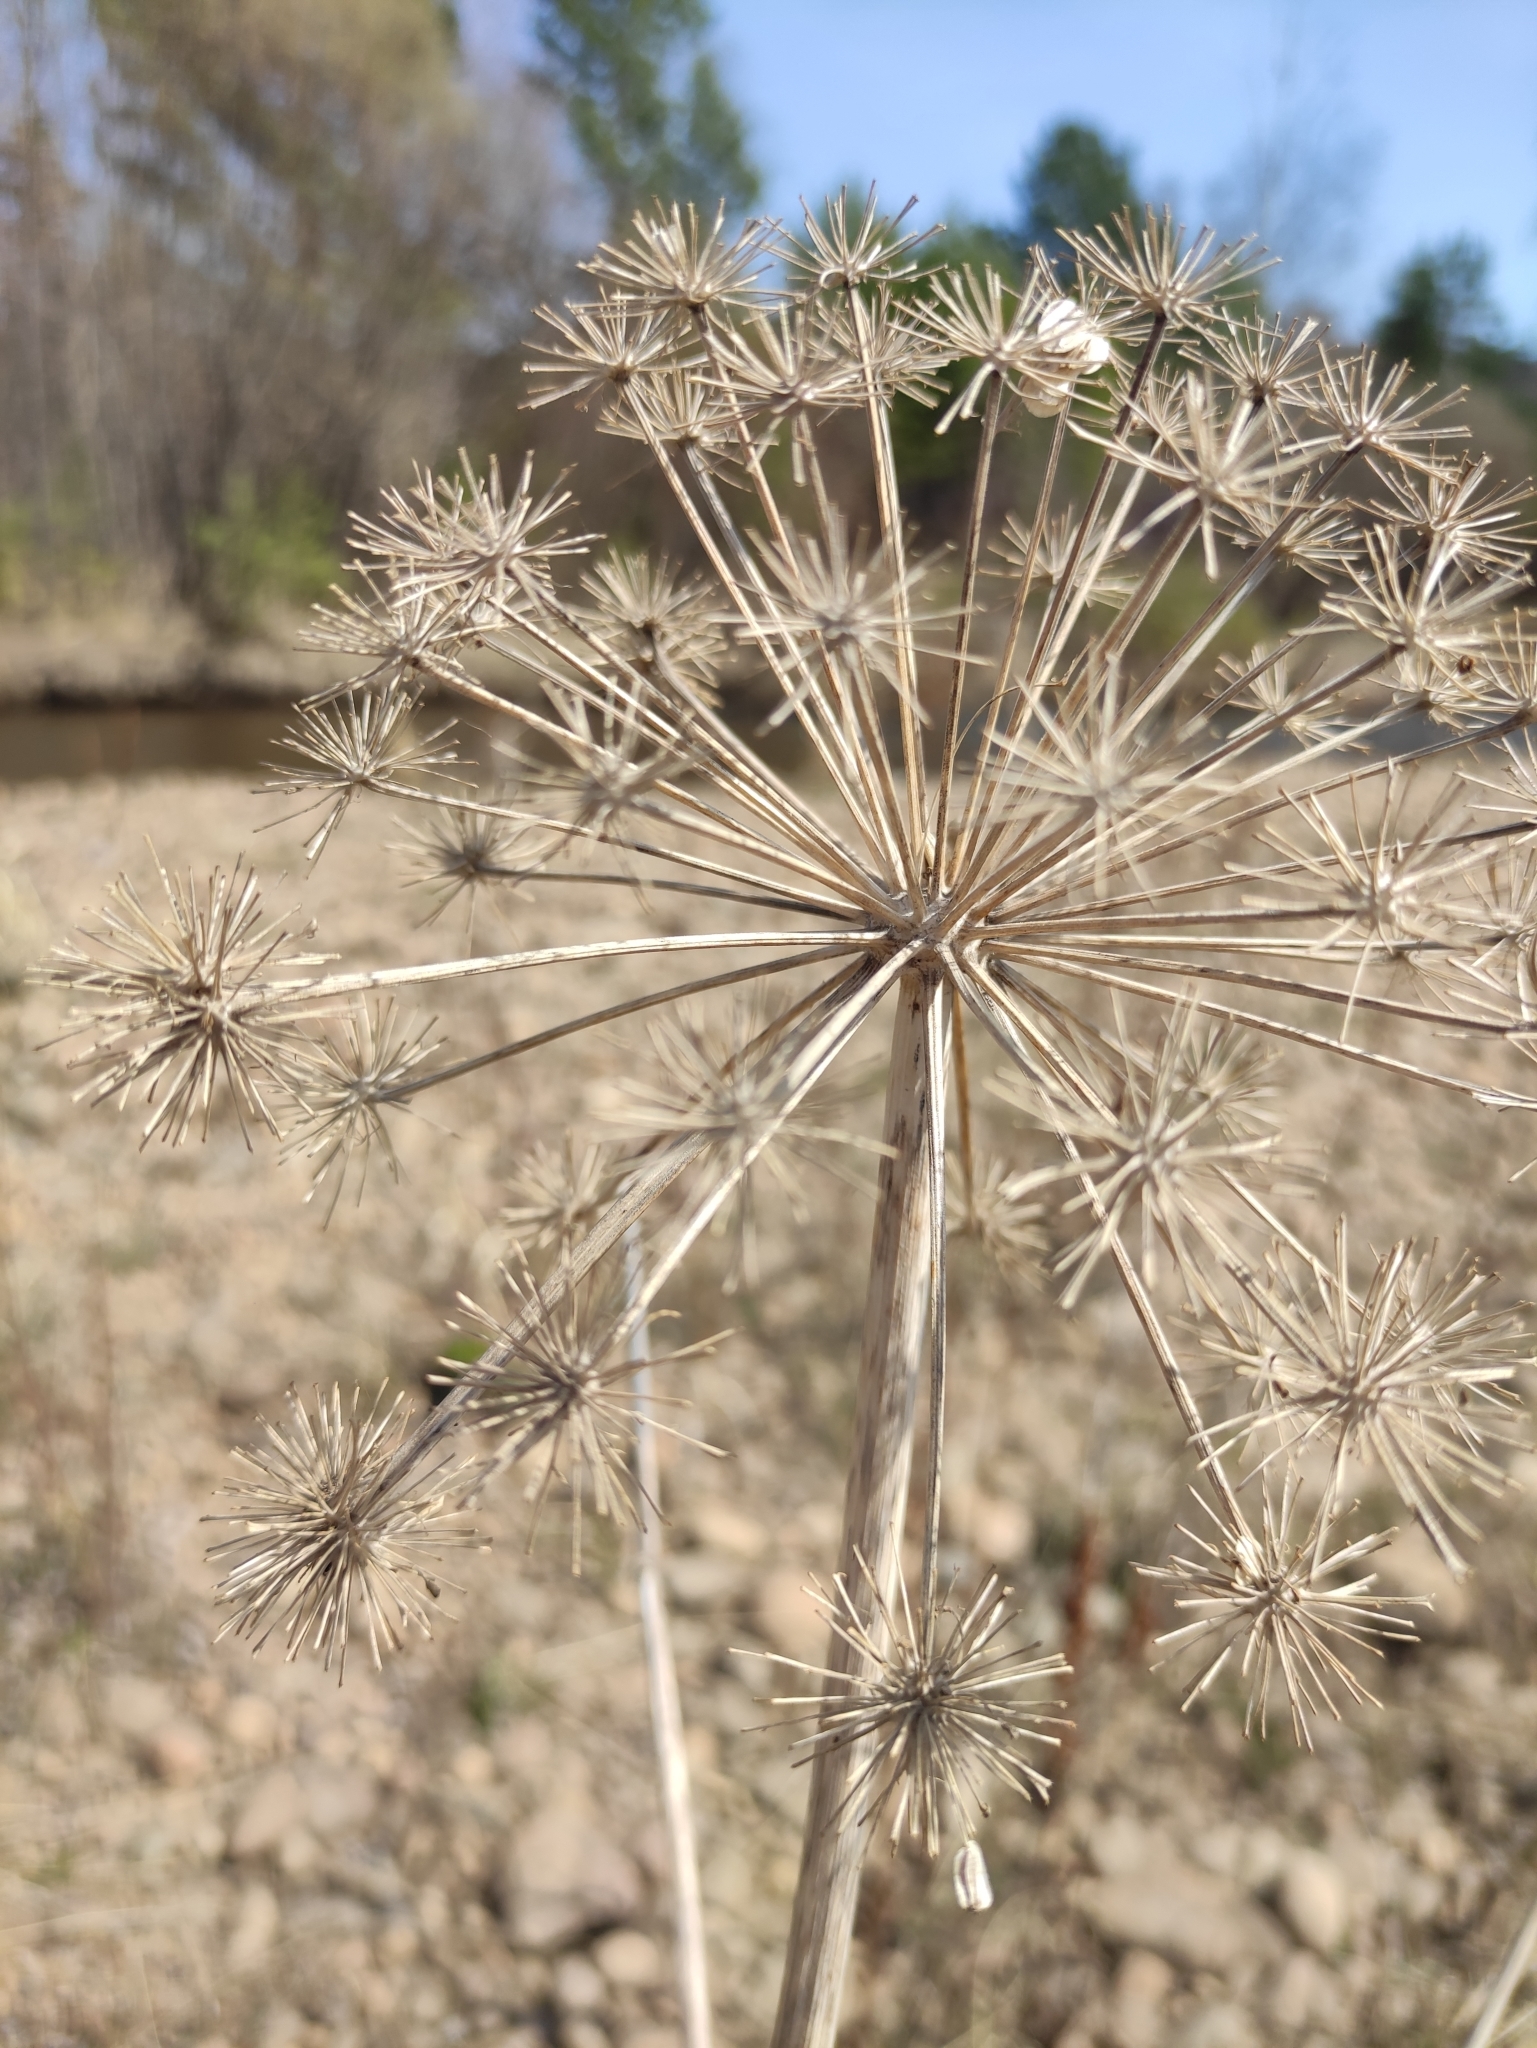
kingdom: Plantae
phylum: Tracheophyta
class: Magnoliopsida
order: Apiales
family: Apiaceae
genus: Angelica
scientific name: Angelica decurrens
